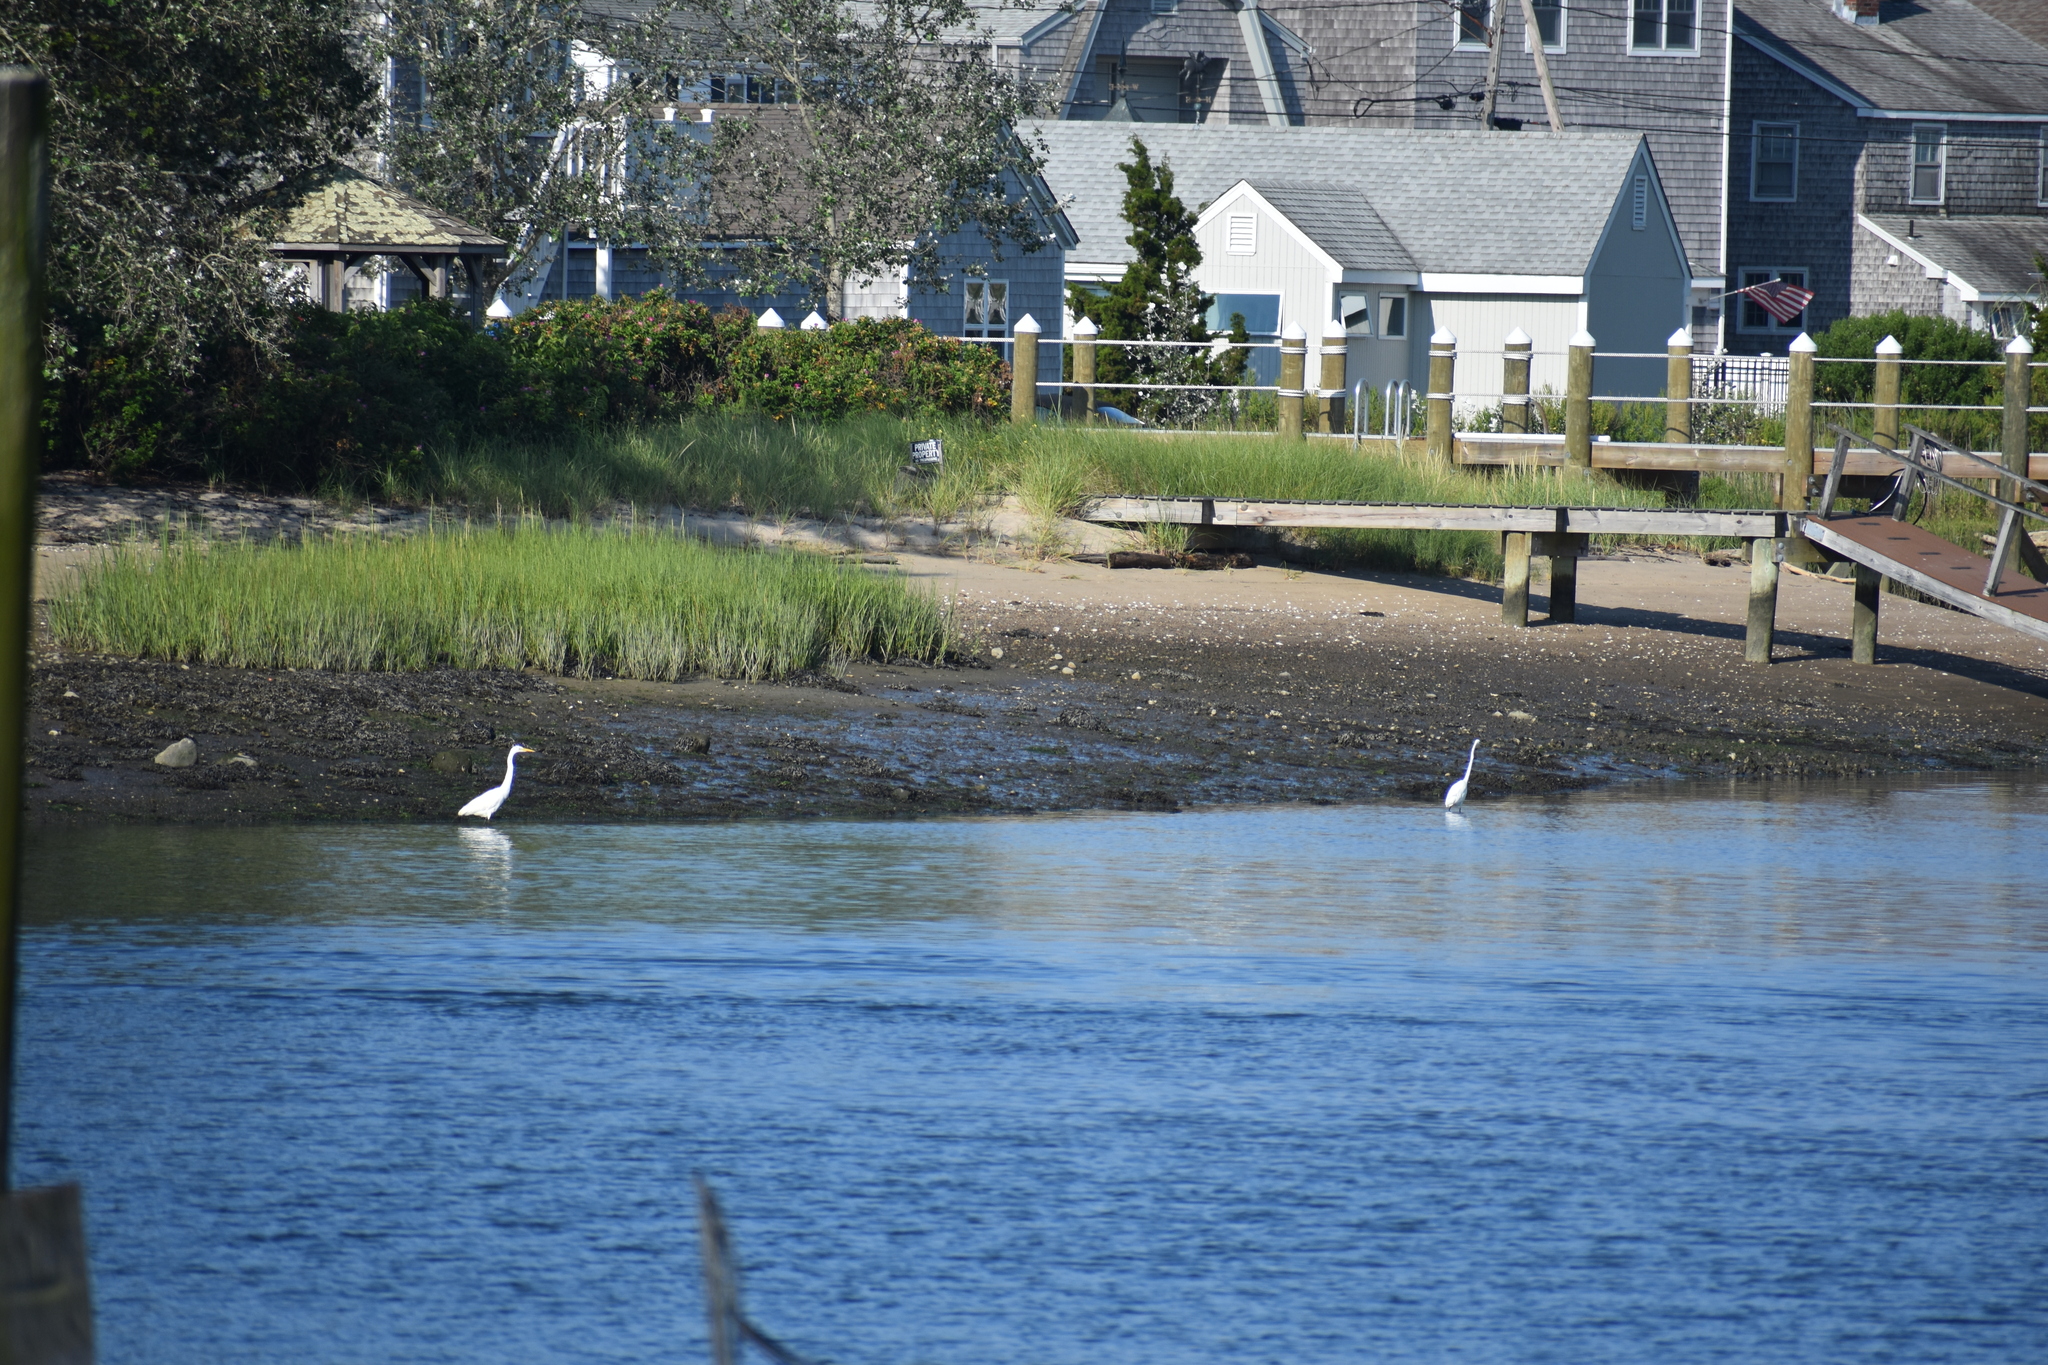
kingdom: Animalia
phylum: Chordata
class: Aves
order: Pelecaniformes
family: Ardeidae
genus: Ardea
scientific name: Ardea alba
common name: Great egret
